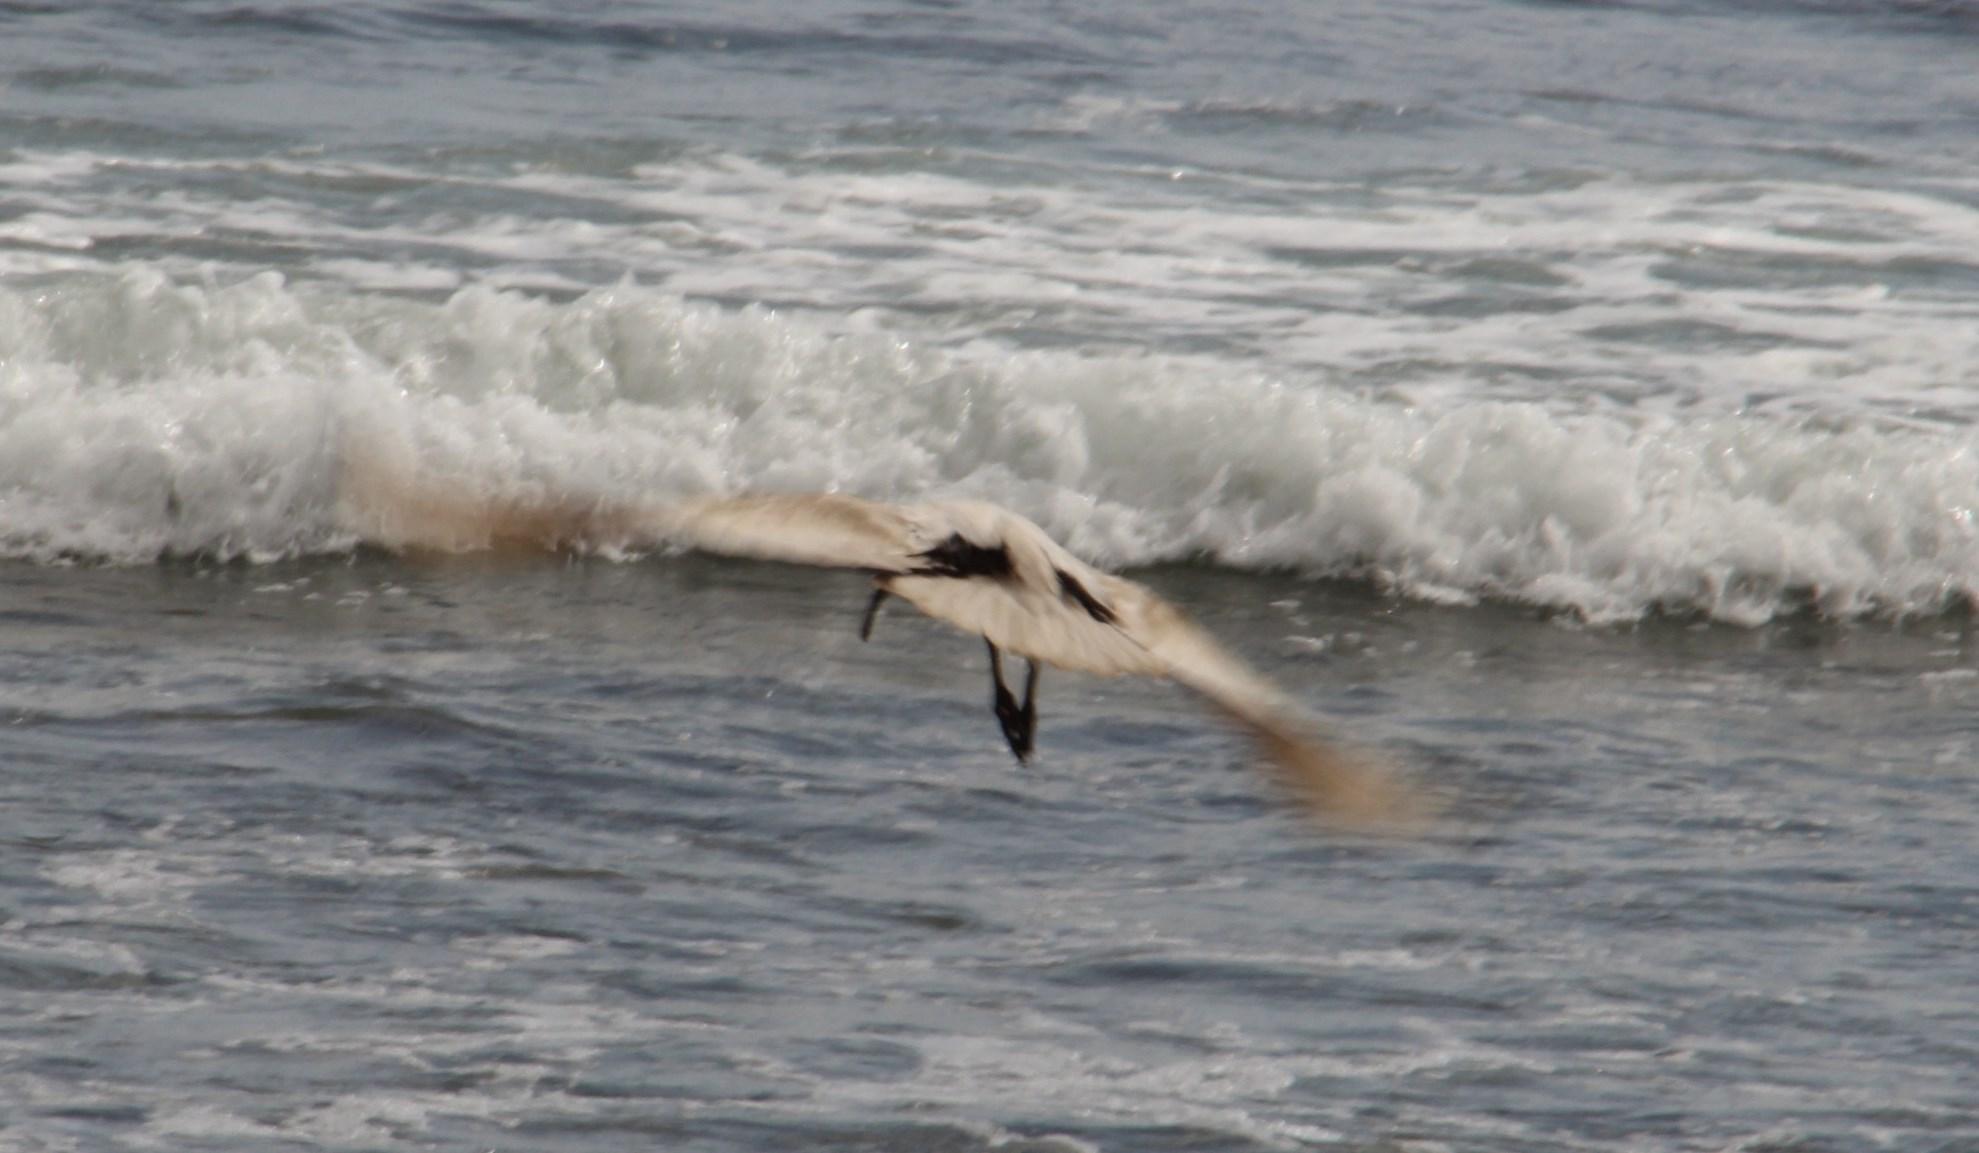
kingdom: Animalia
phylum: Chordata
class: Aves
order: Pelecaniformes
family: Threskiornithidae
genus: Threskiornis
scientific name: Threskiornis aethiopicus
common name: Sacred ibis
